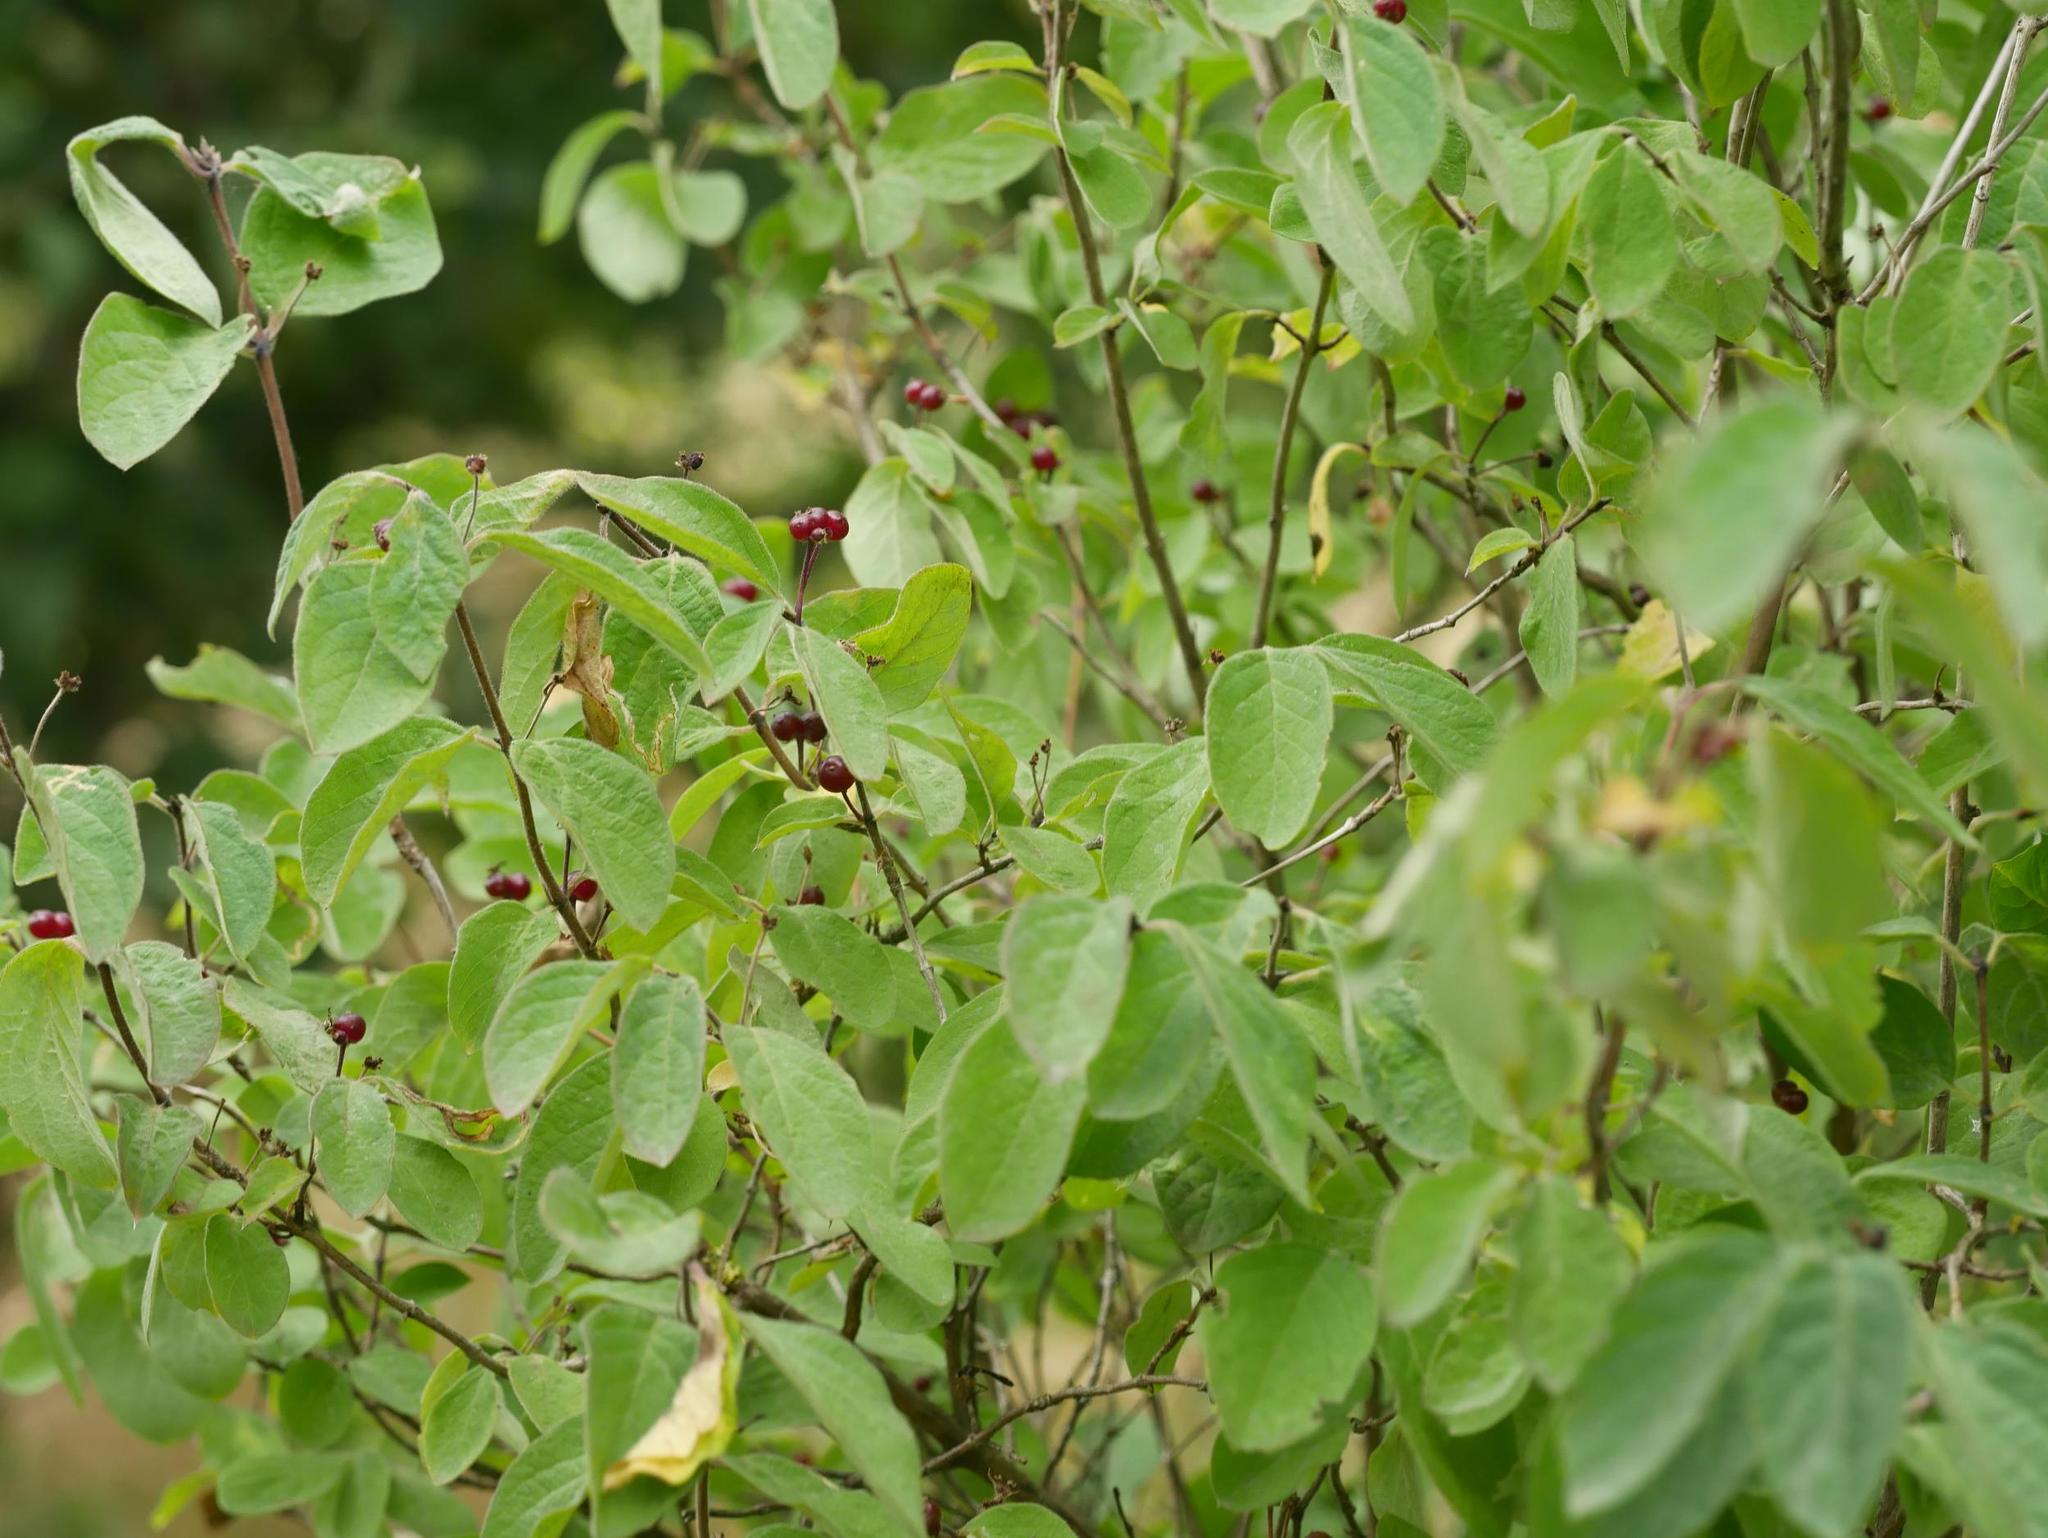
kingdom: Plantae
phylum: Tracheophyta
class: Magnoliopsida
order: Dipsacales
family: Caprifoliaceae
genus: Lonicera
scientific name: Lonicera xylosteum
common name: Fly honeysuckle
